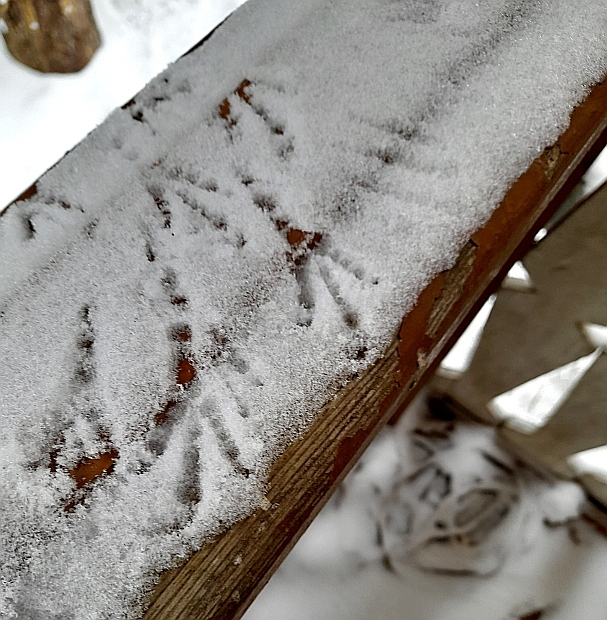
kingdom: Animalia
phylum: Chordata
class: Aves
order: Passeriformes
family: Corvidae
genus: Pica
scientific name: Pica pica
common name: Eurasian magpie
